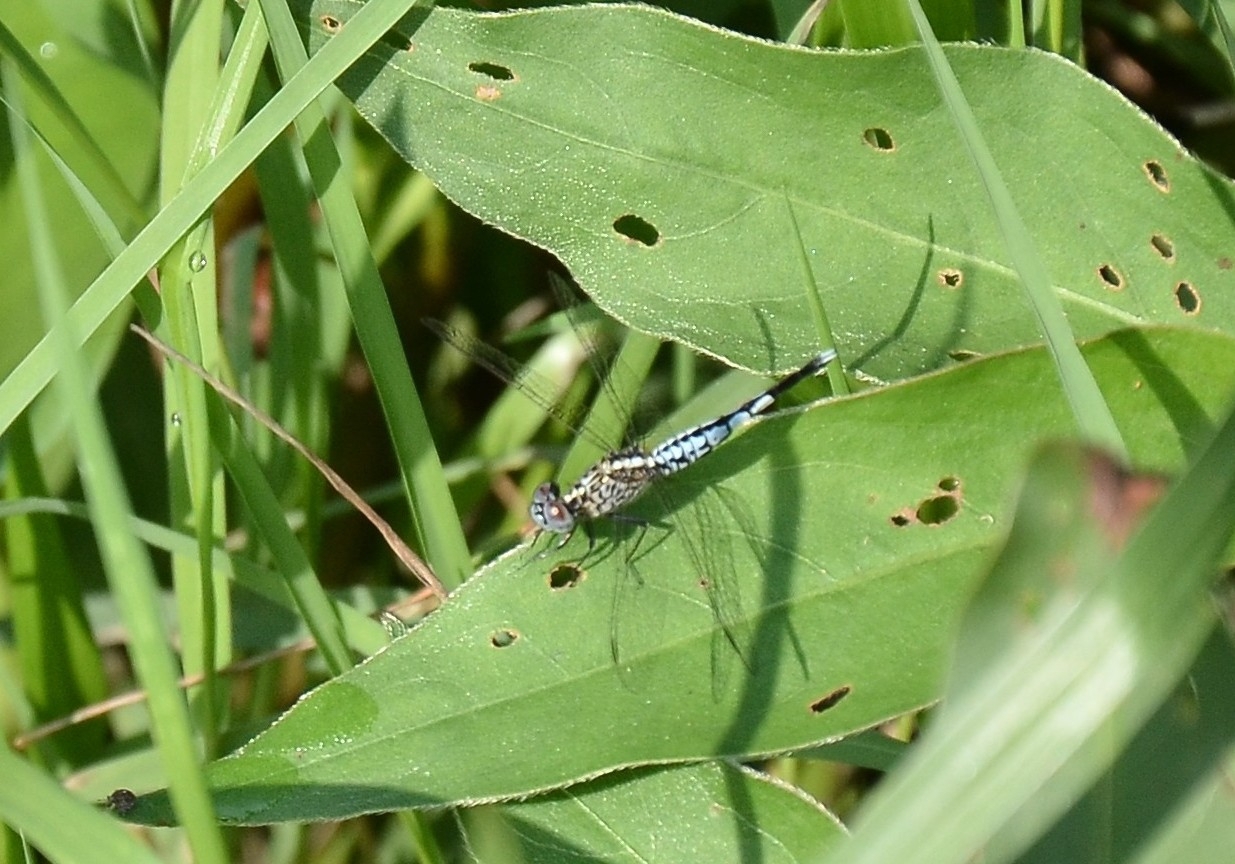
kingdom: Animalia
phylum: Arthropoda
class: Insecta
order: Odonata
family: Libellulidae
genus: Acisoma
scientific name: Acisoma panorpoides
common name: Asian pintail
